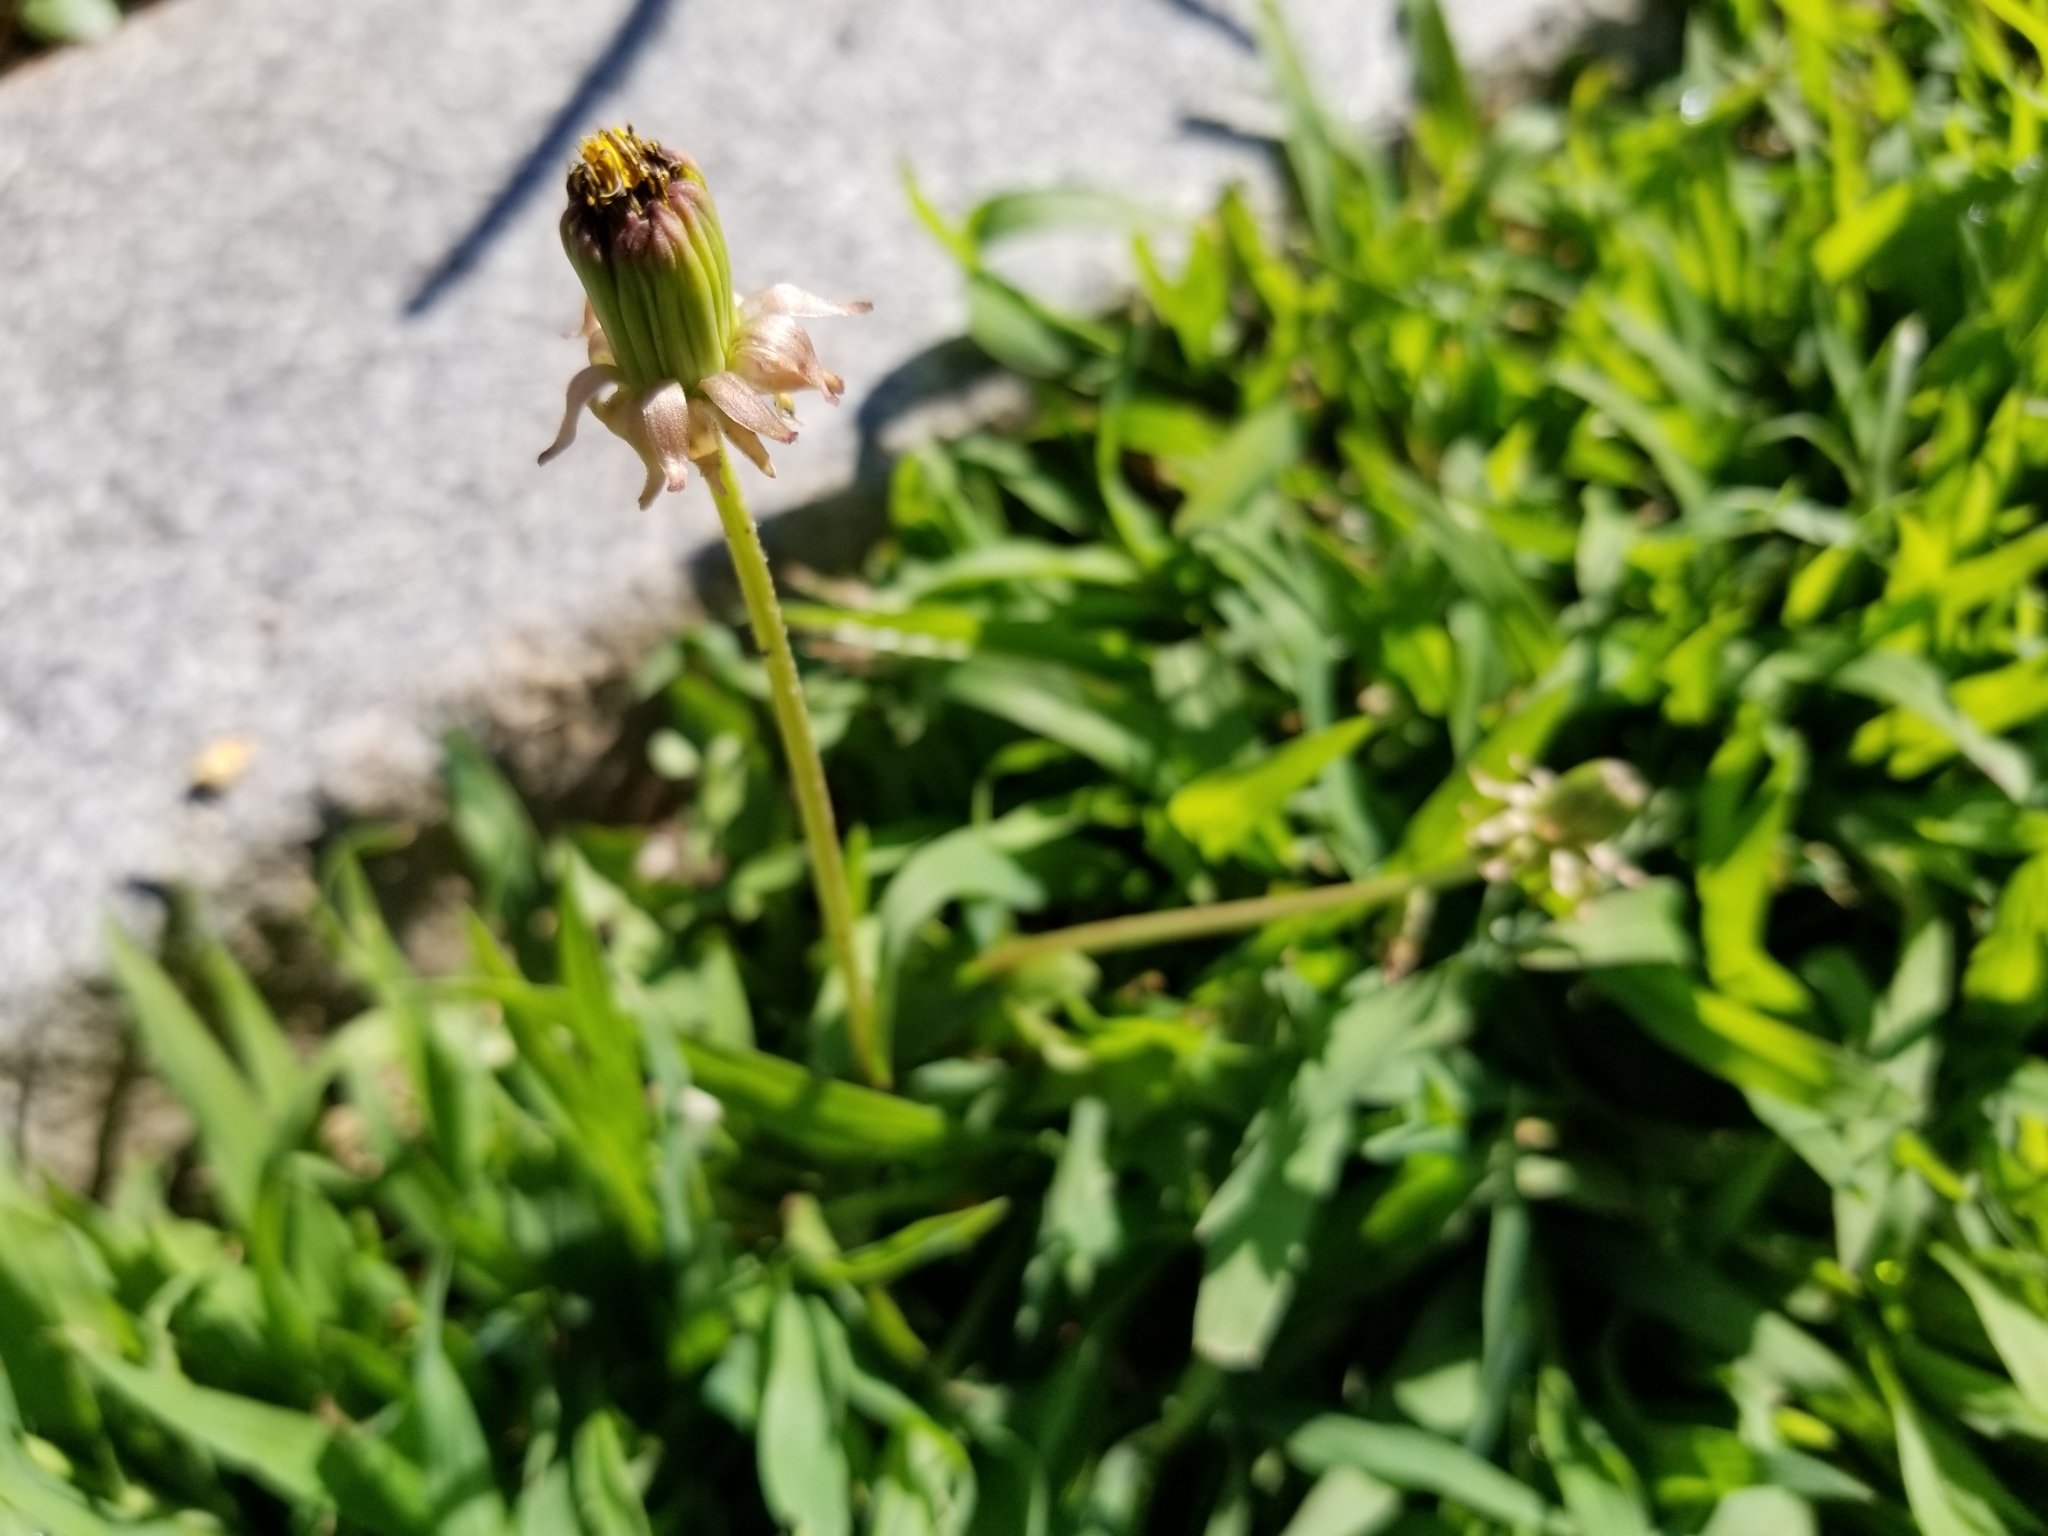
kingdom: Plantae
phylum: Tracheophyta
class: Magnoliopsida
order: Asterales
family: Asteraceae
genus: Taraxacum
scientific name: Taraxacum officinale
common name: Common dandelion
